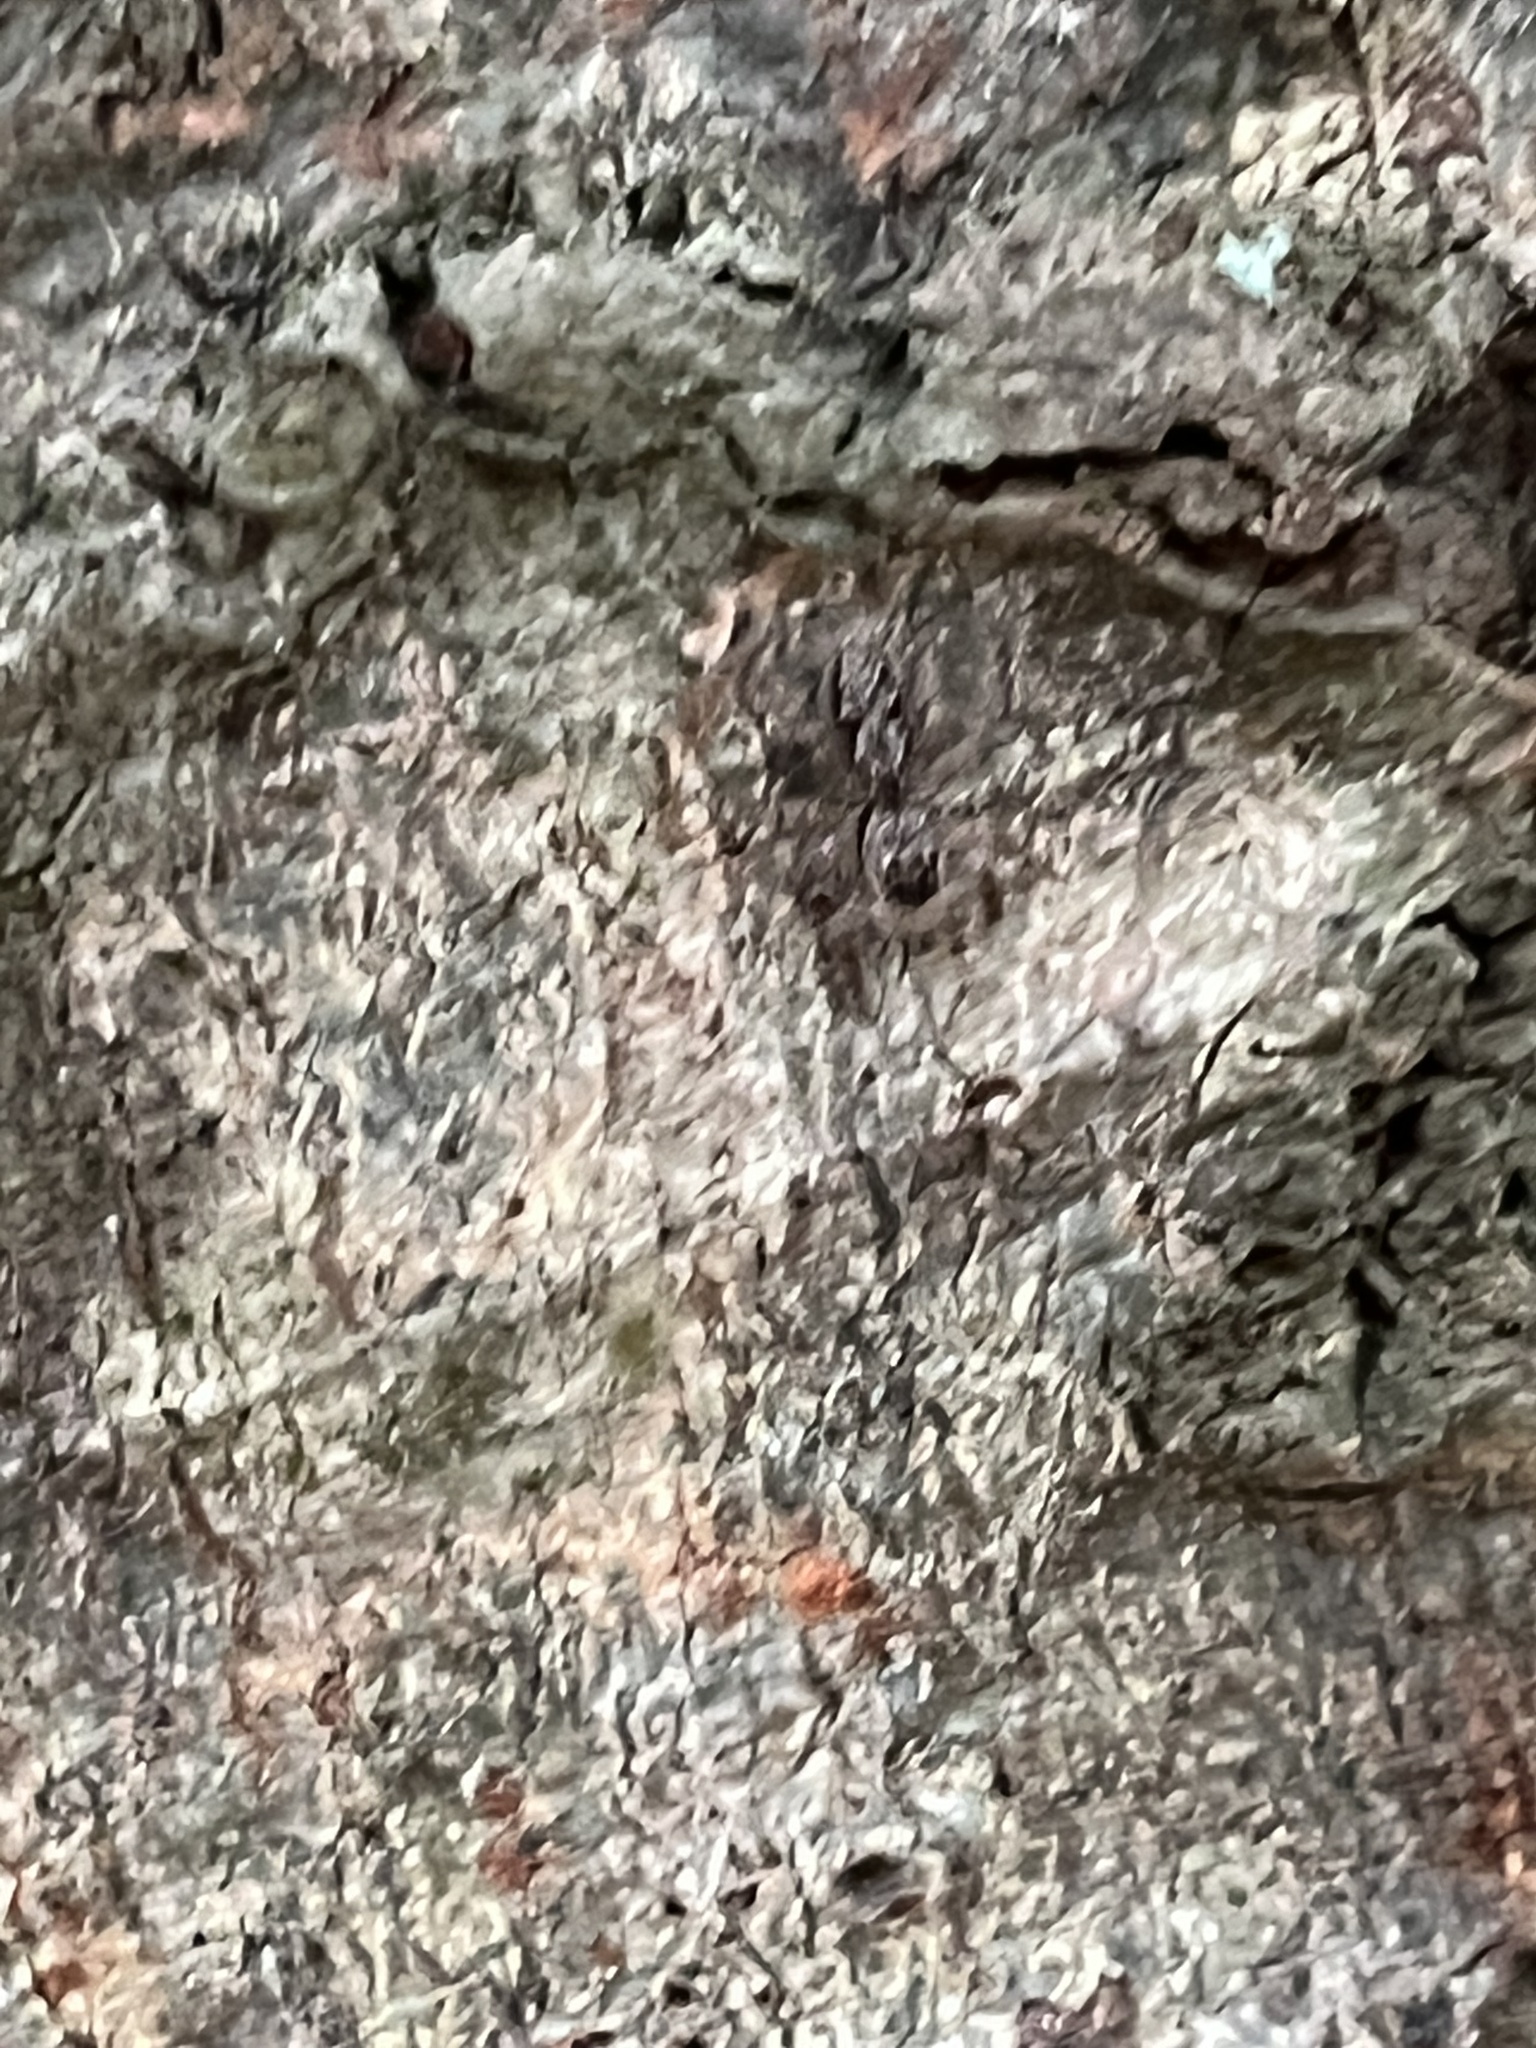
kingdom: Animalia
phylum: Arthropoda
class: Arachnida
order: Araneae
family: Salticidae
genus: Platycryptus
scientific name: Platycryptus undatus
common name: Tan jumping spider
